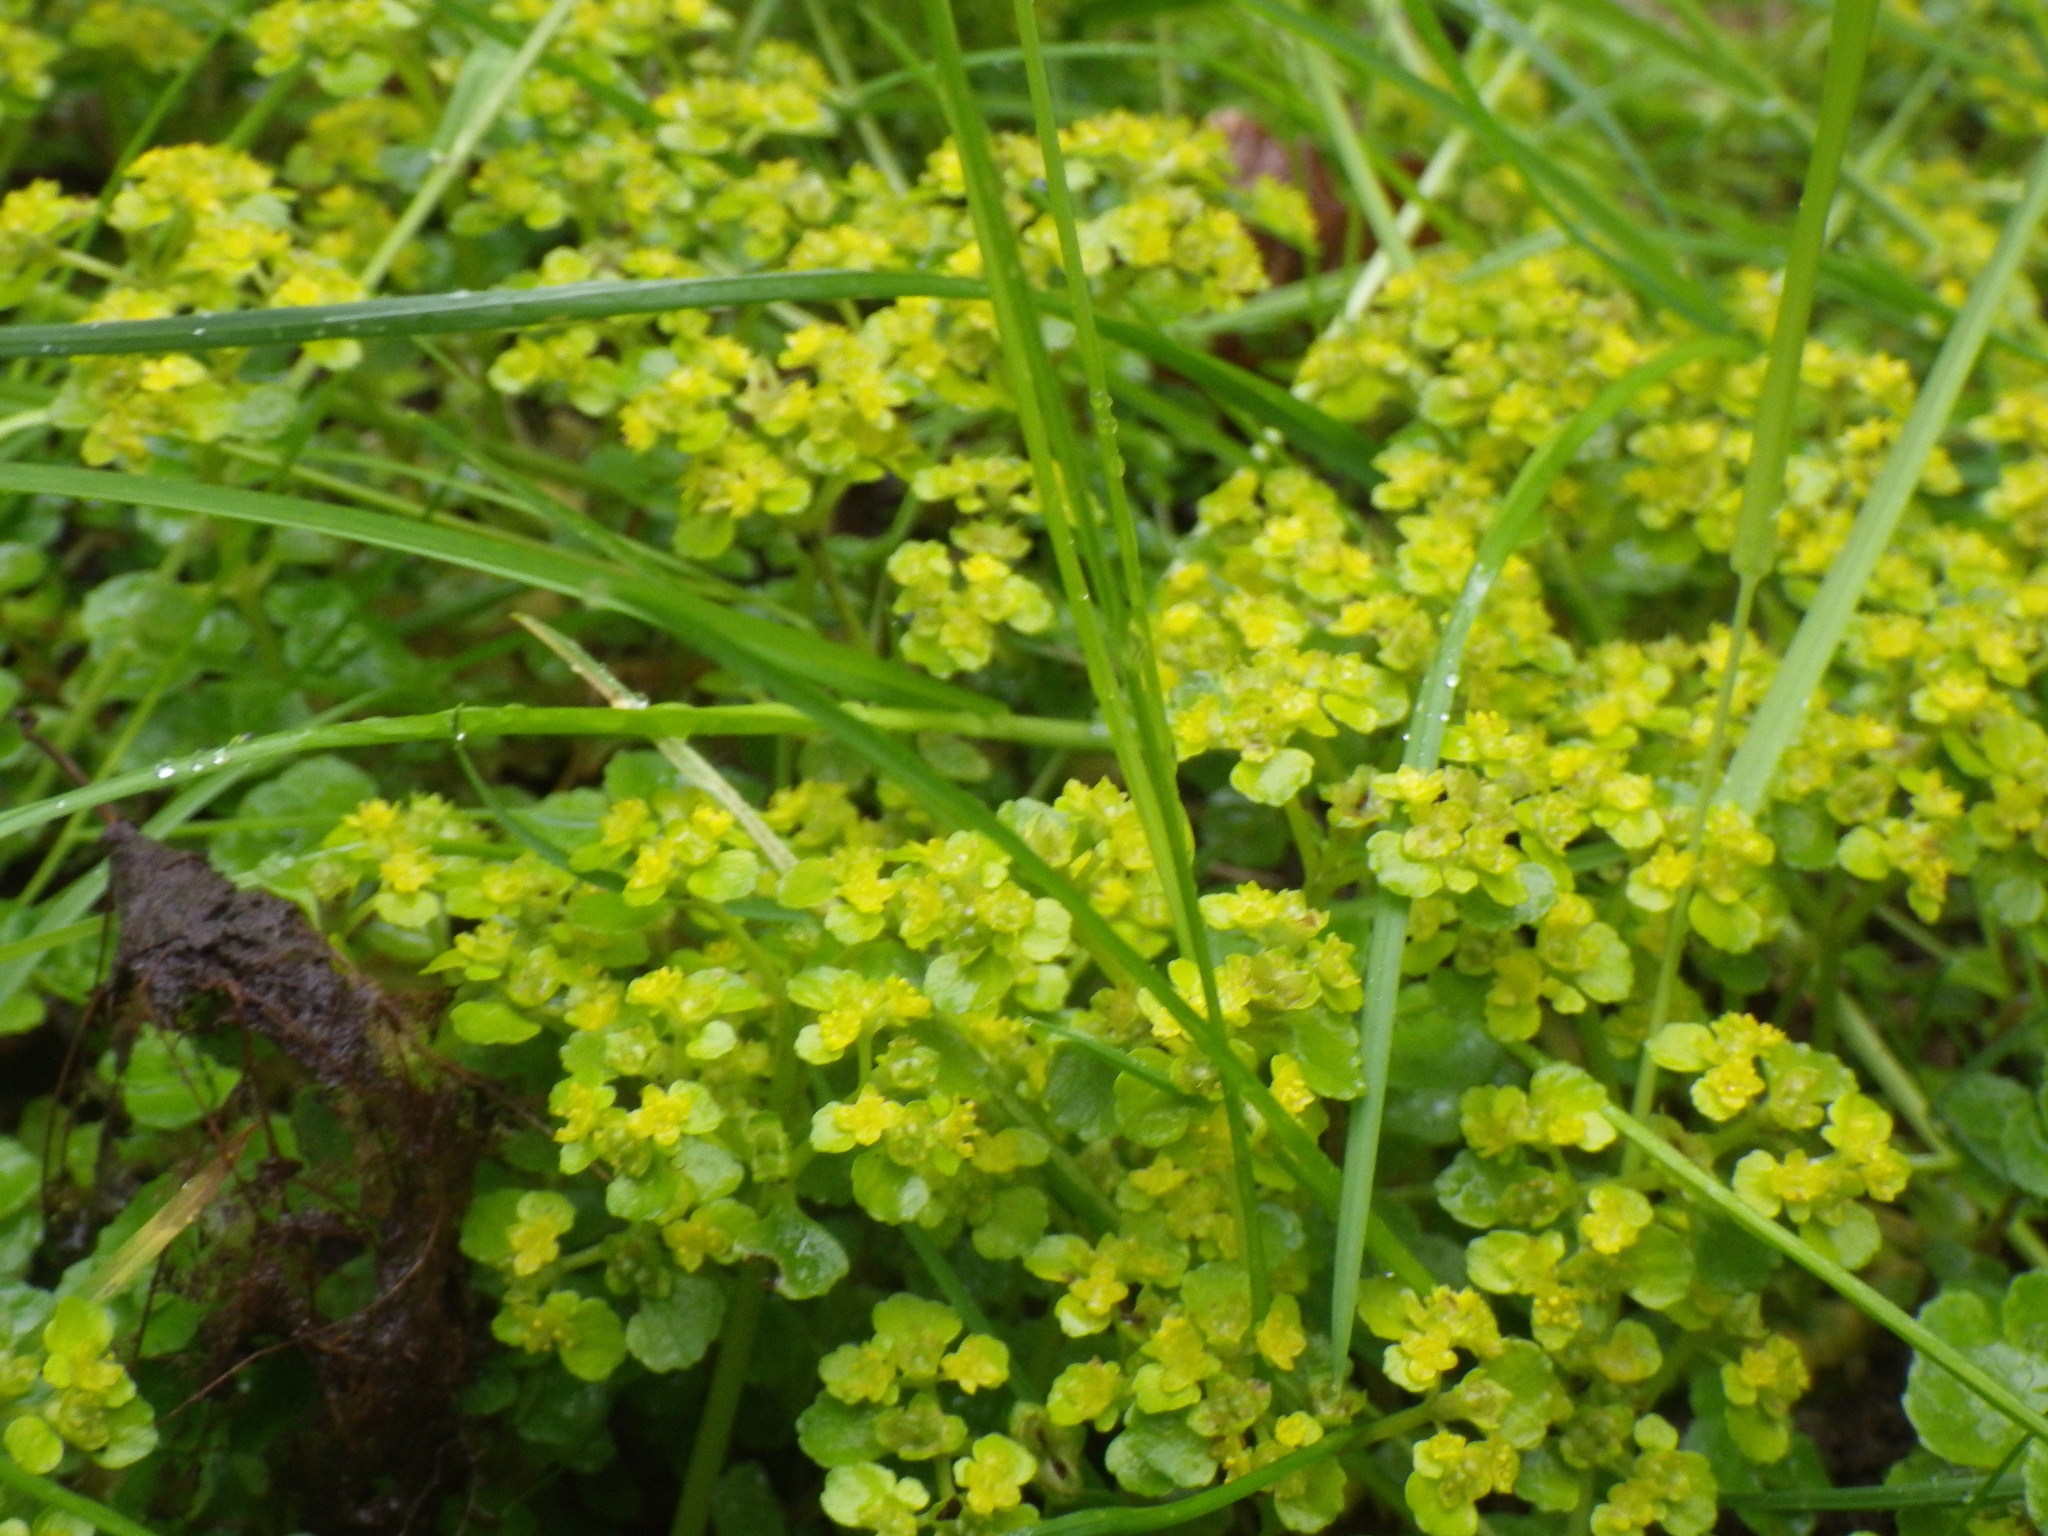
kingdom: Plantae
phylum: Tracheophyta
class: Magnoliopsida
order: Saxifragales
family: Saxifragaceae
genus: Chrysosplenium
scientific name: Chrysosplenium oppositifolium
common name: Opposite-leaved golden-saxifrage
